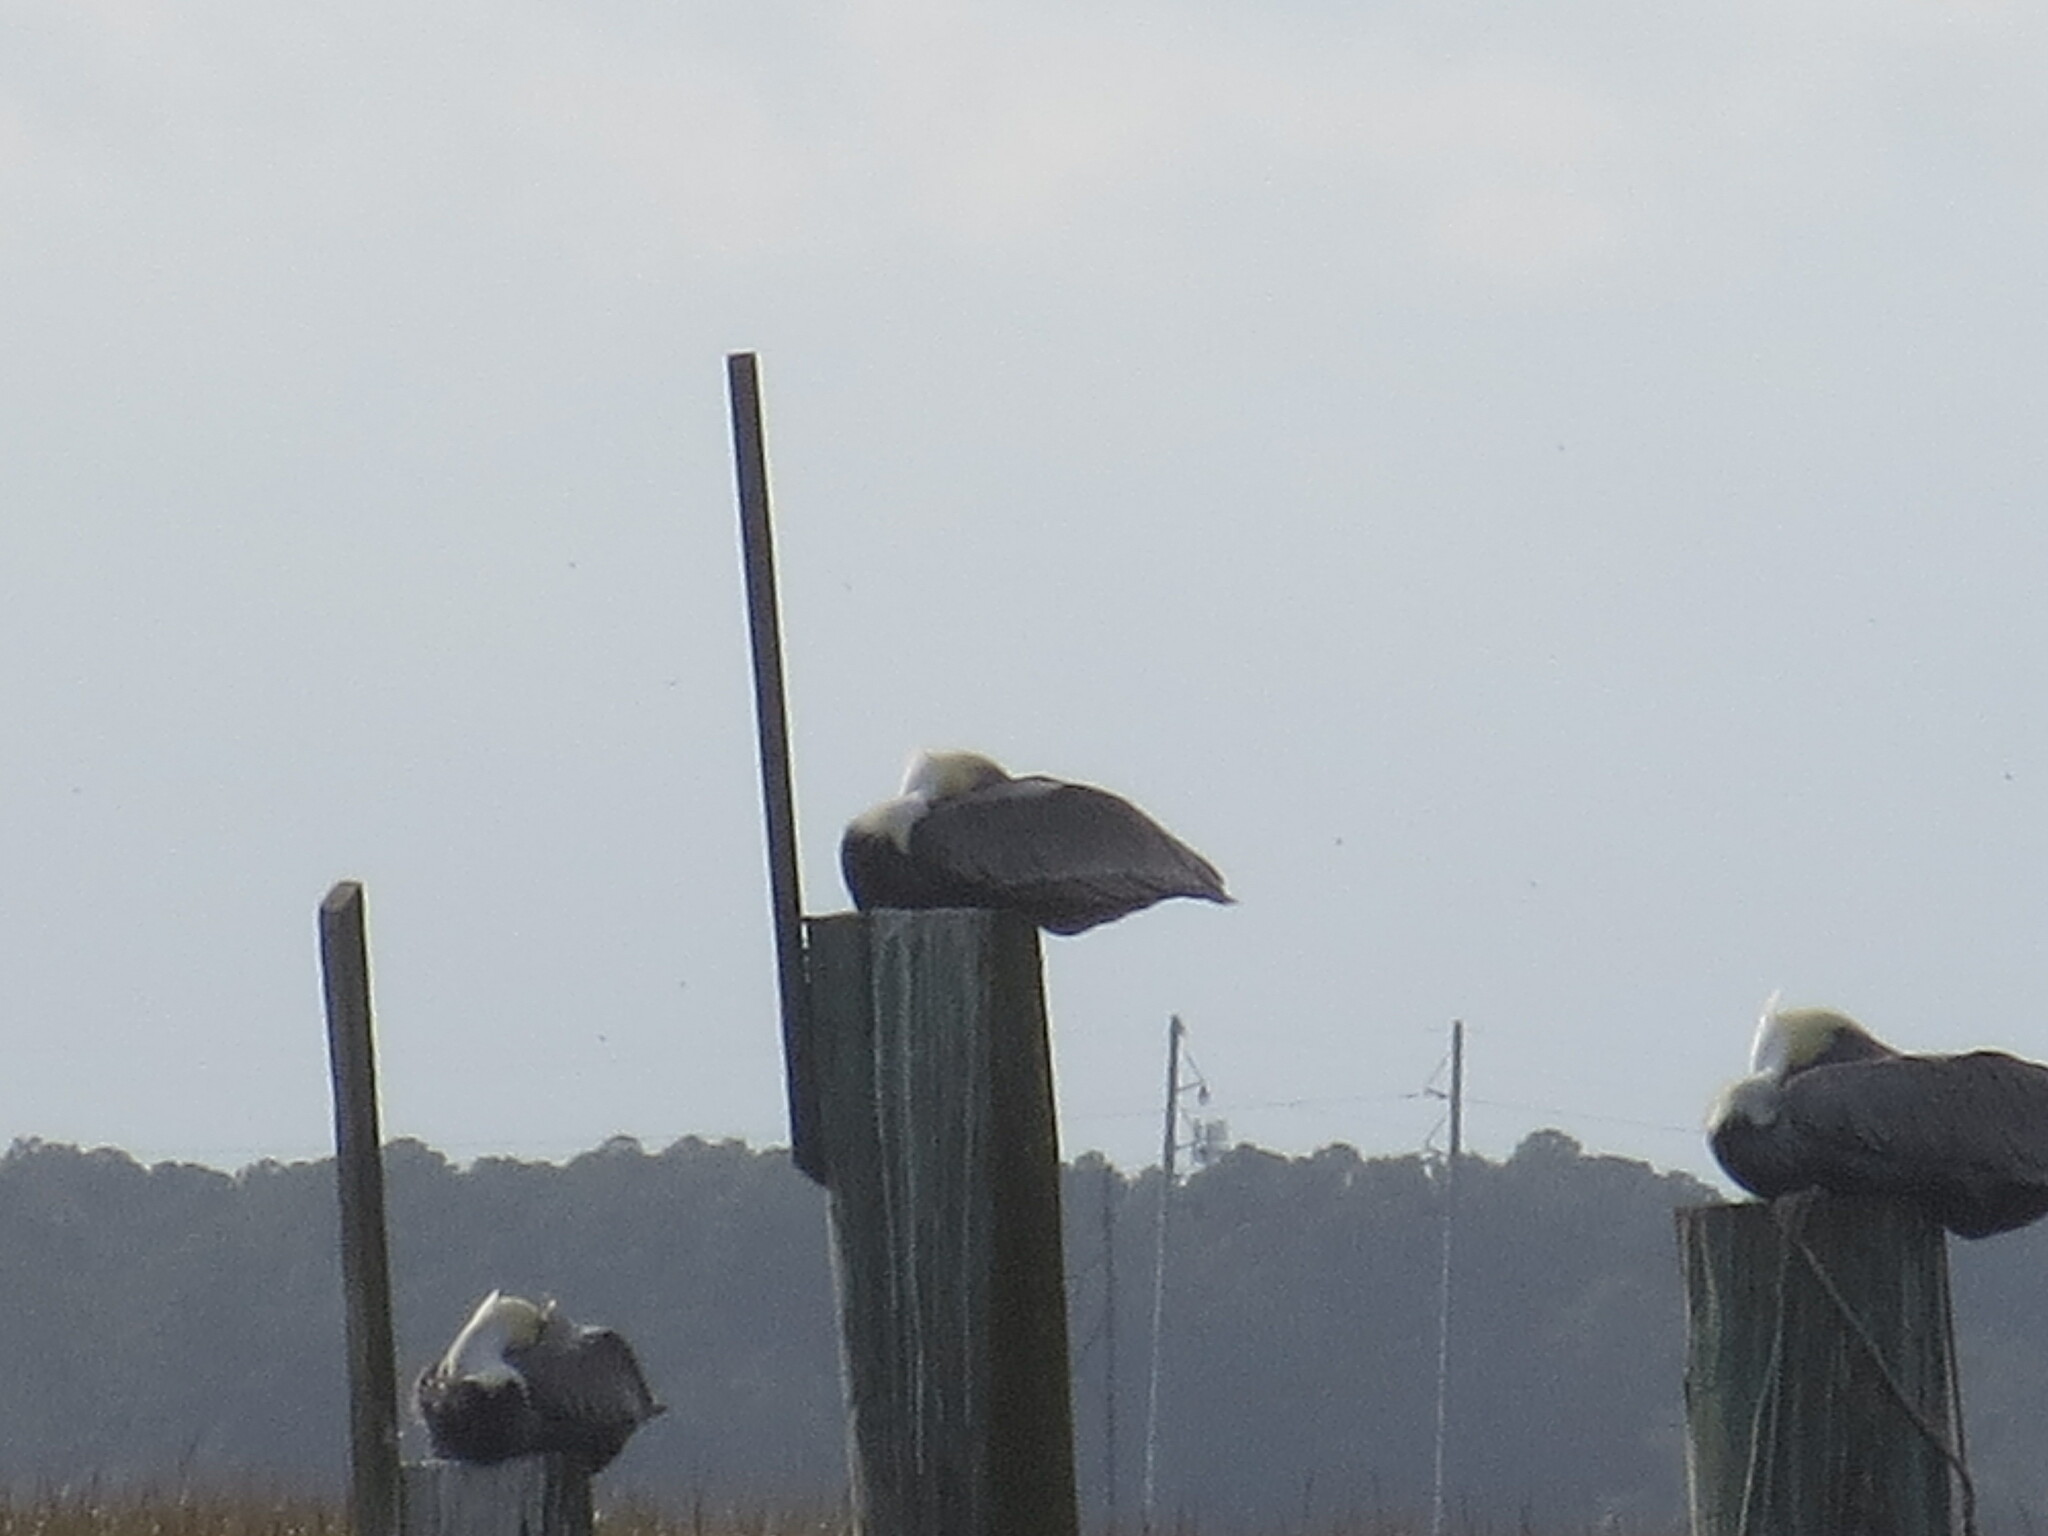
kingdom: Animalia
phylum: Chordata
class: Aves
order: Pelecaniformes
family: Pelecanidae
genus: Pelecanus
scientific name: Pelecanus occidentalis
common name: Brown pelican
